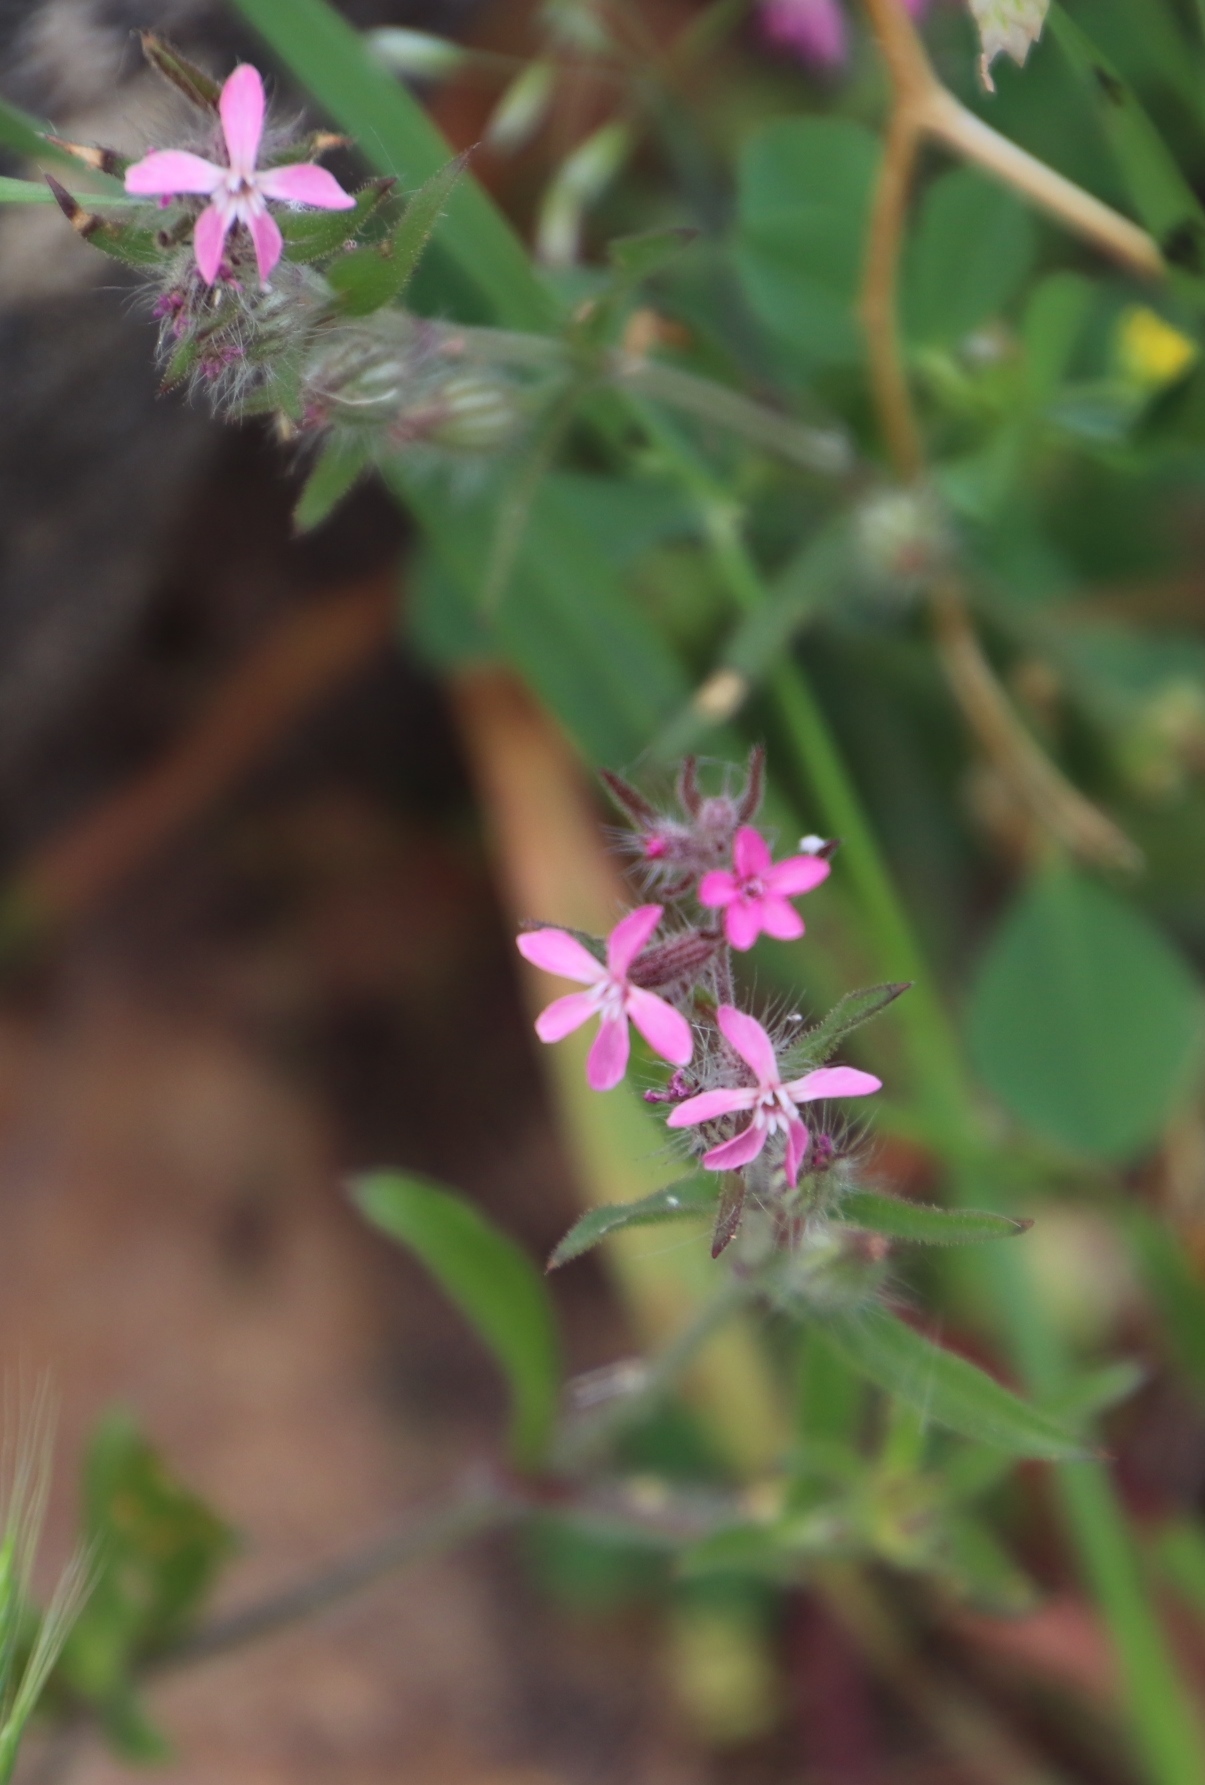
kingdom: Plantae
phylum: Tracheophyta
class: Magnoliopsida
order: Caryophyllales
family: Caryophyllaceae
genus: Silene
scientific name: Silene gallica
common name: Small-flowered catchfly
